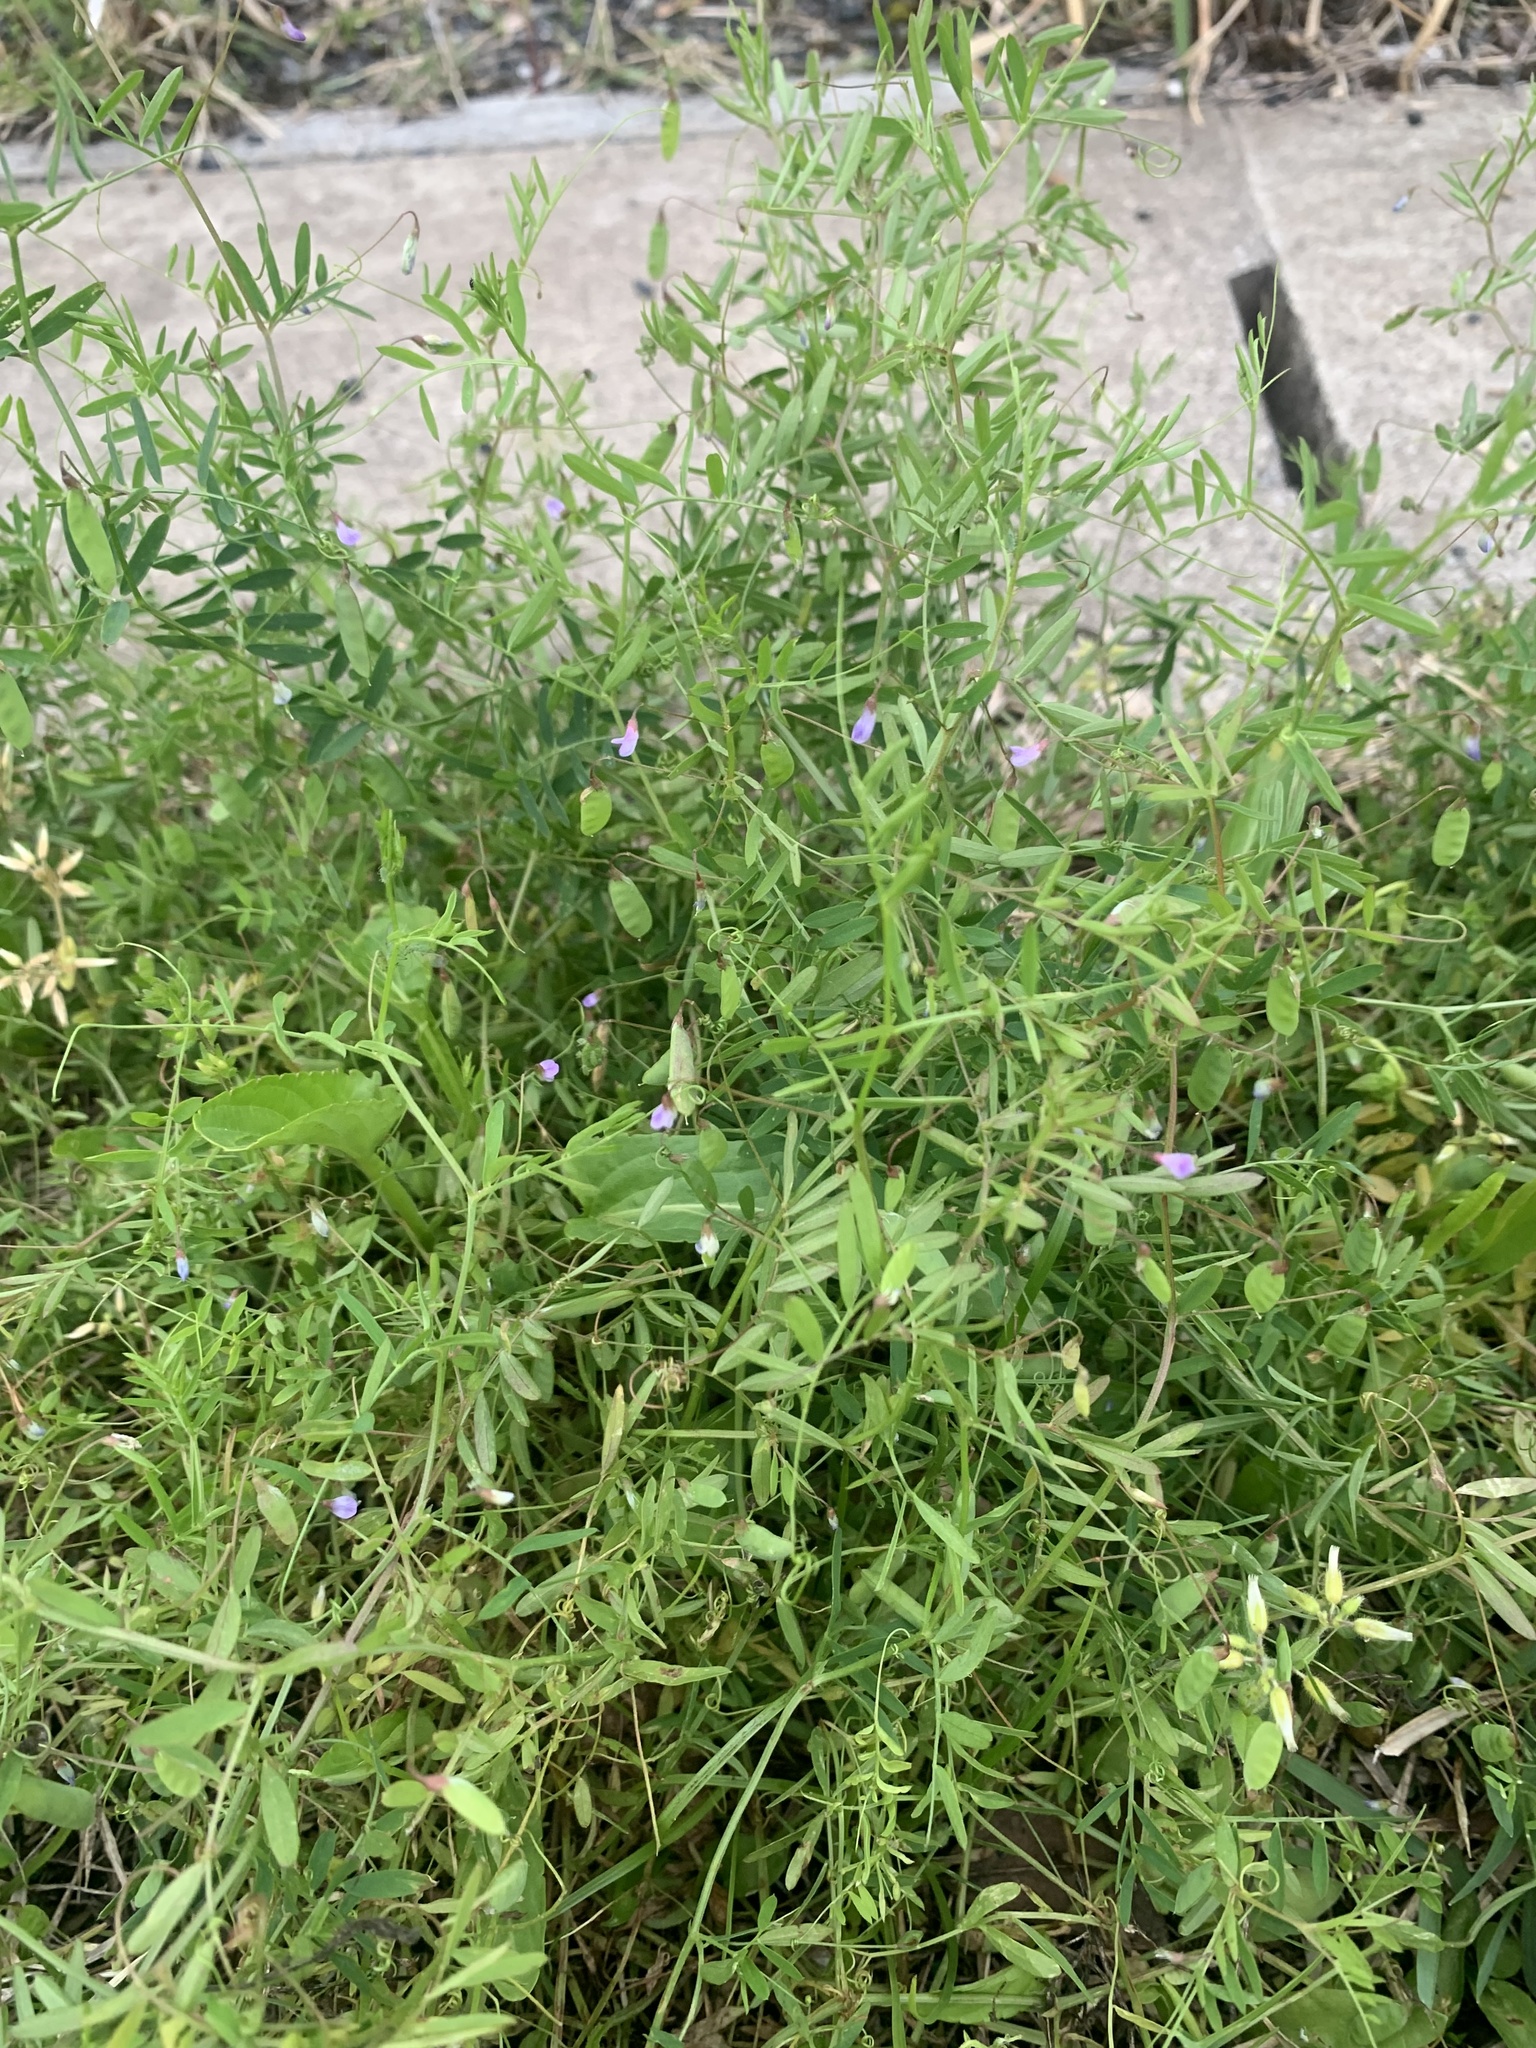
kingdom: Plantae
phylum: Tracheophyta
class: Magnoliopsida
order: Fabales
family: Fabaceae
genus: Vicia
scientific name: Vicia tetrasperma
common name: Smooth tare
